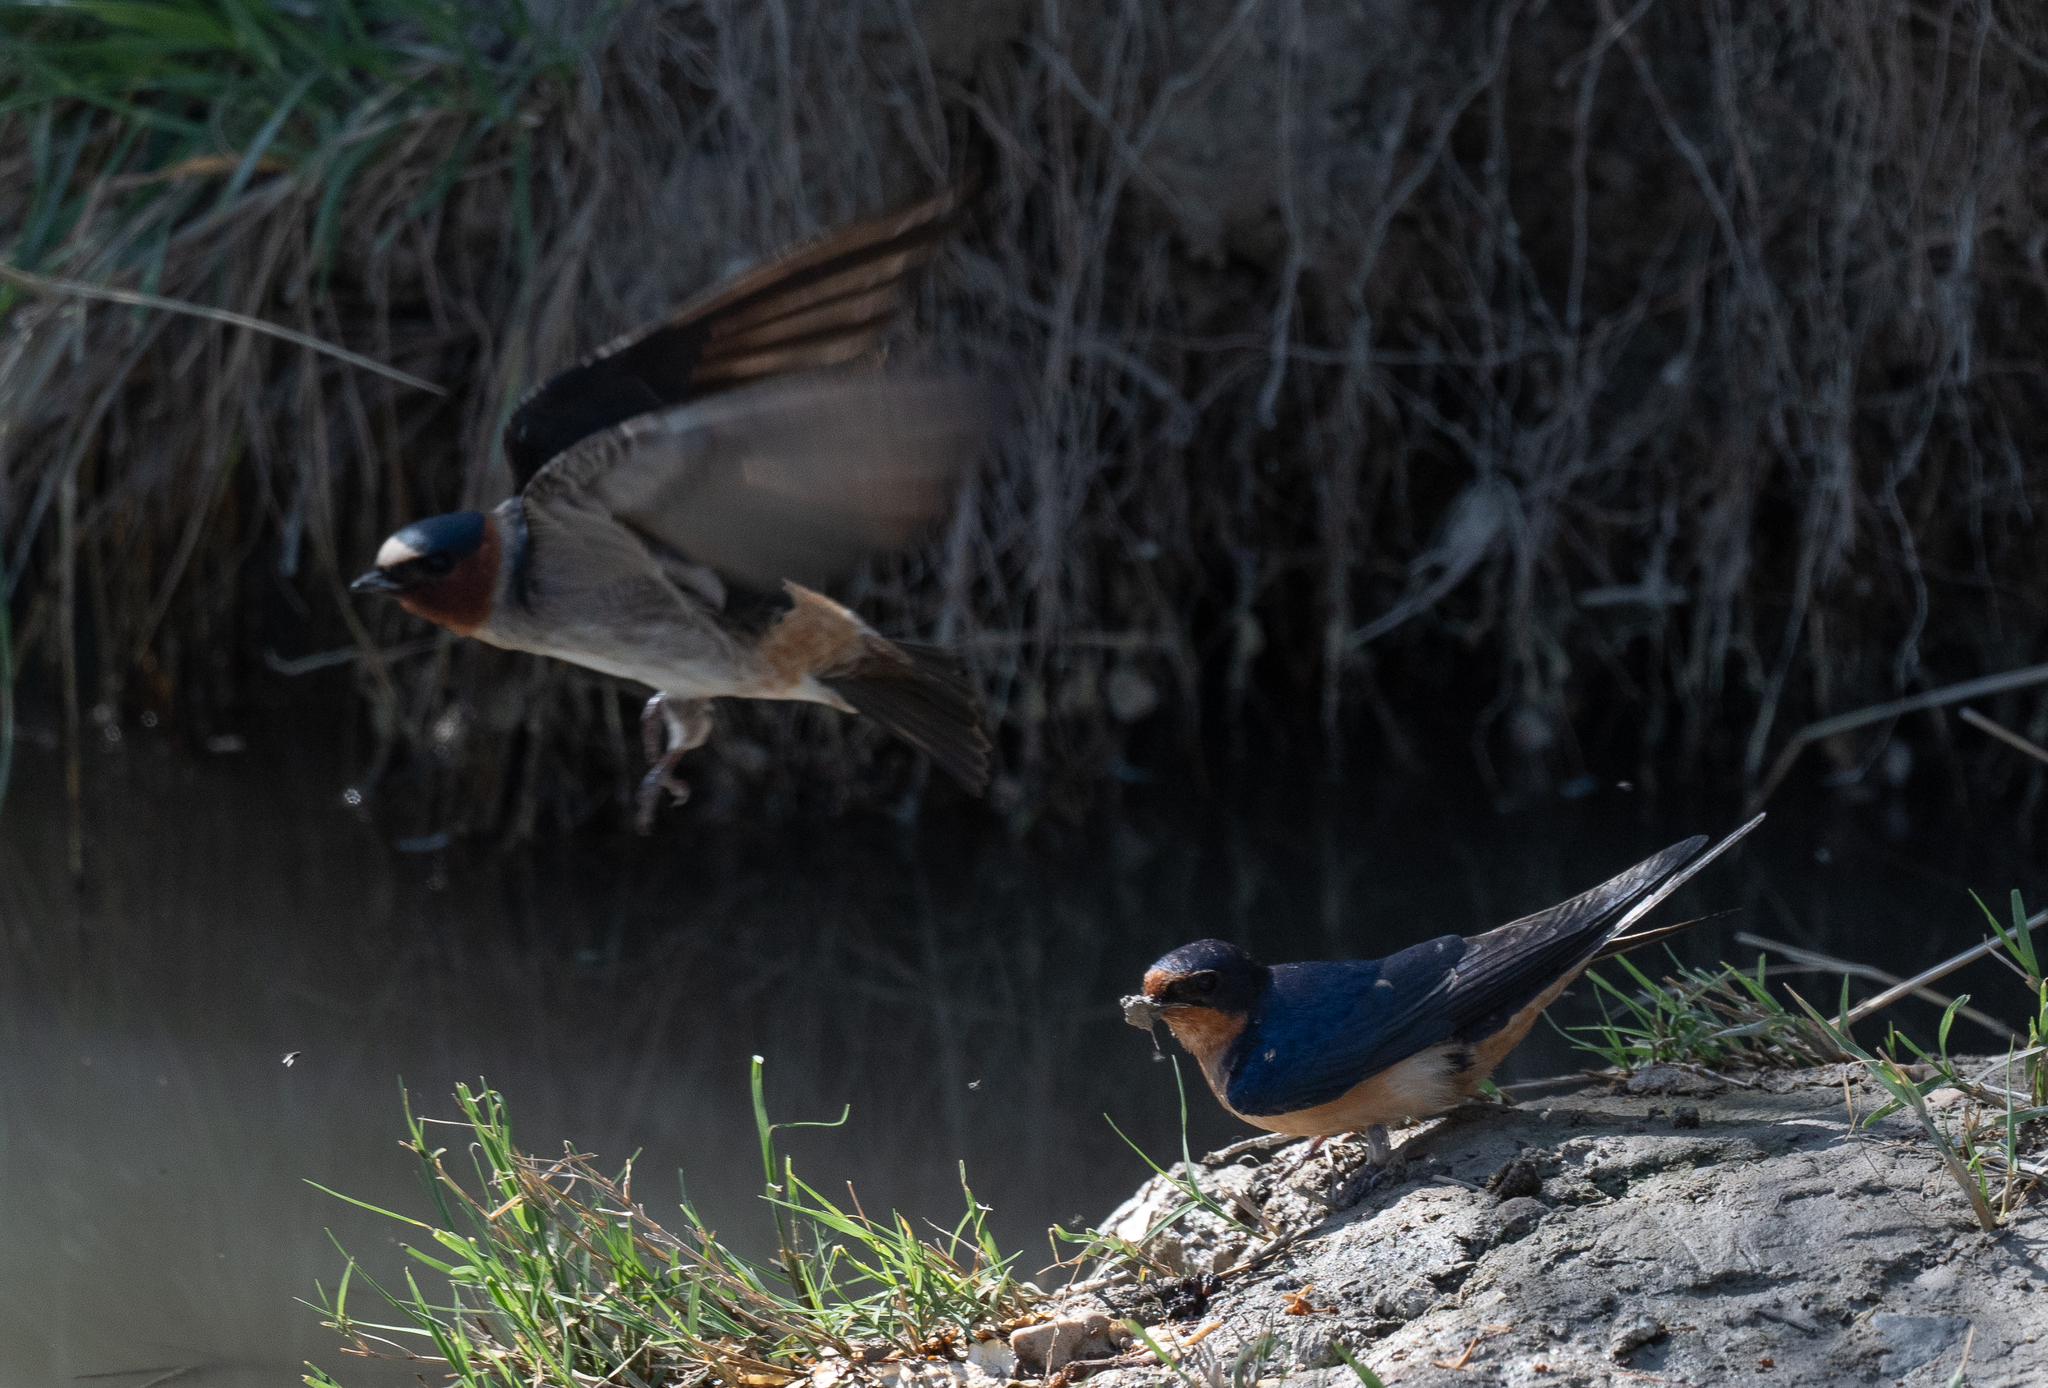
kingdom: Animalia
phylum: Chordata
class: Aves
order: Passeriformes
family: Hirundinidae
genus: Petrochelidon
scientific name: Petrochelidon pyrrhonota
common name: American cliff swallow
